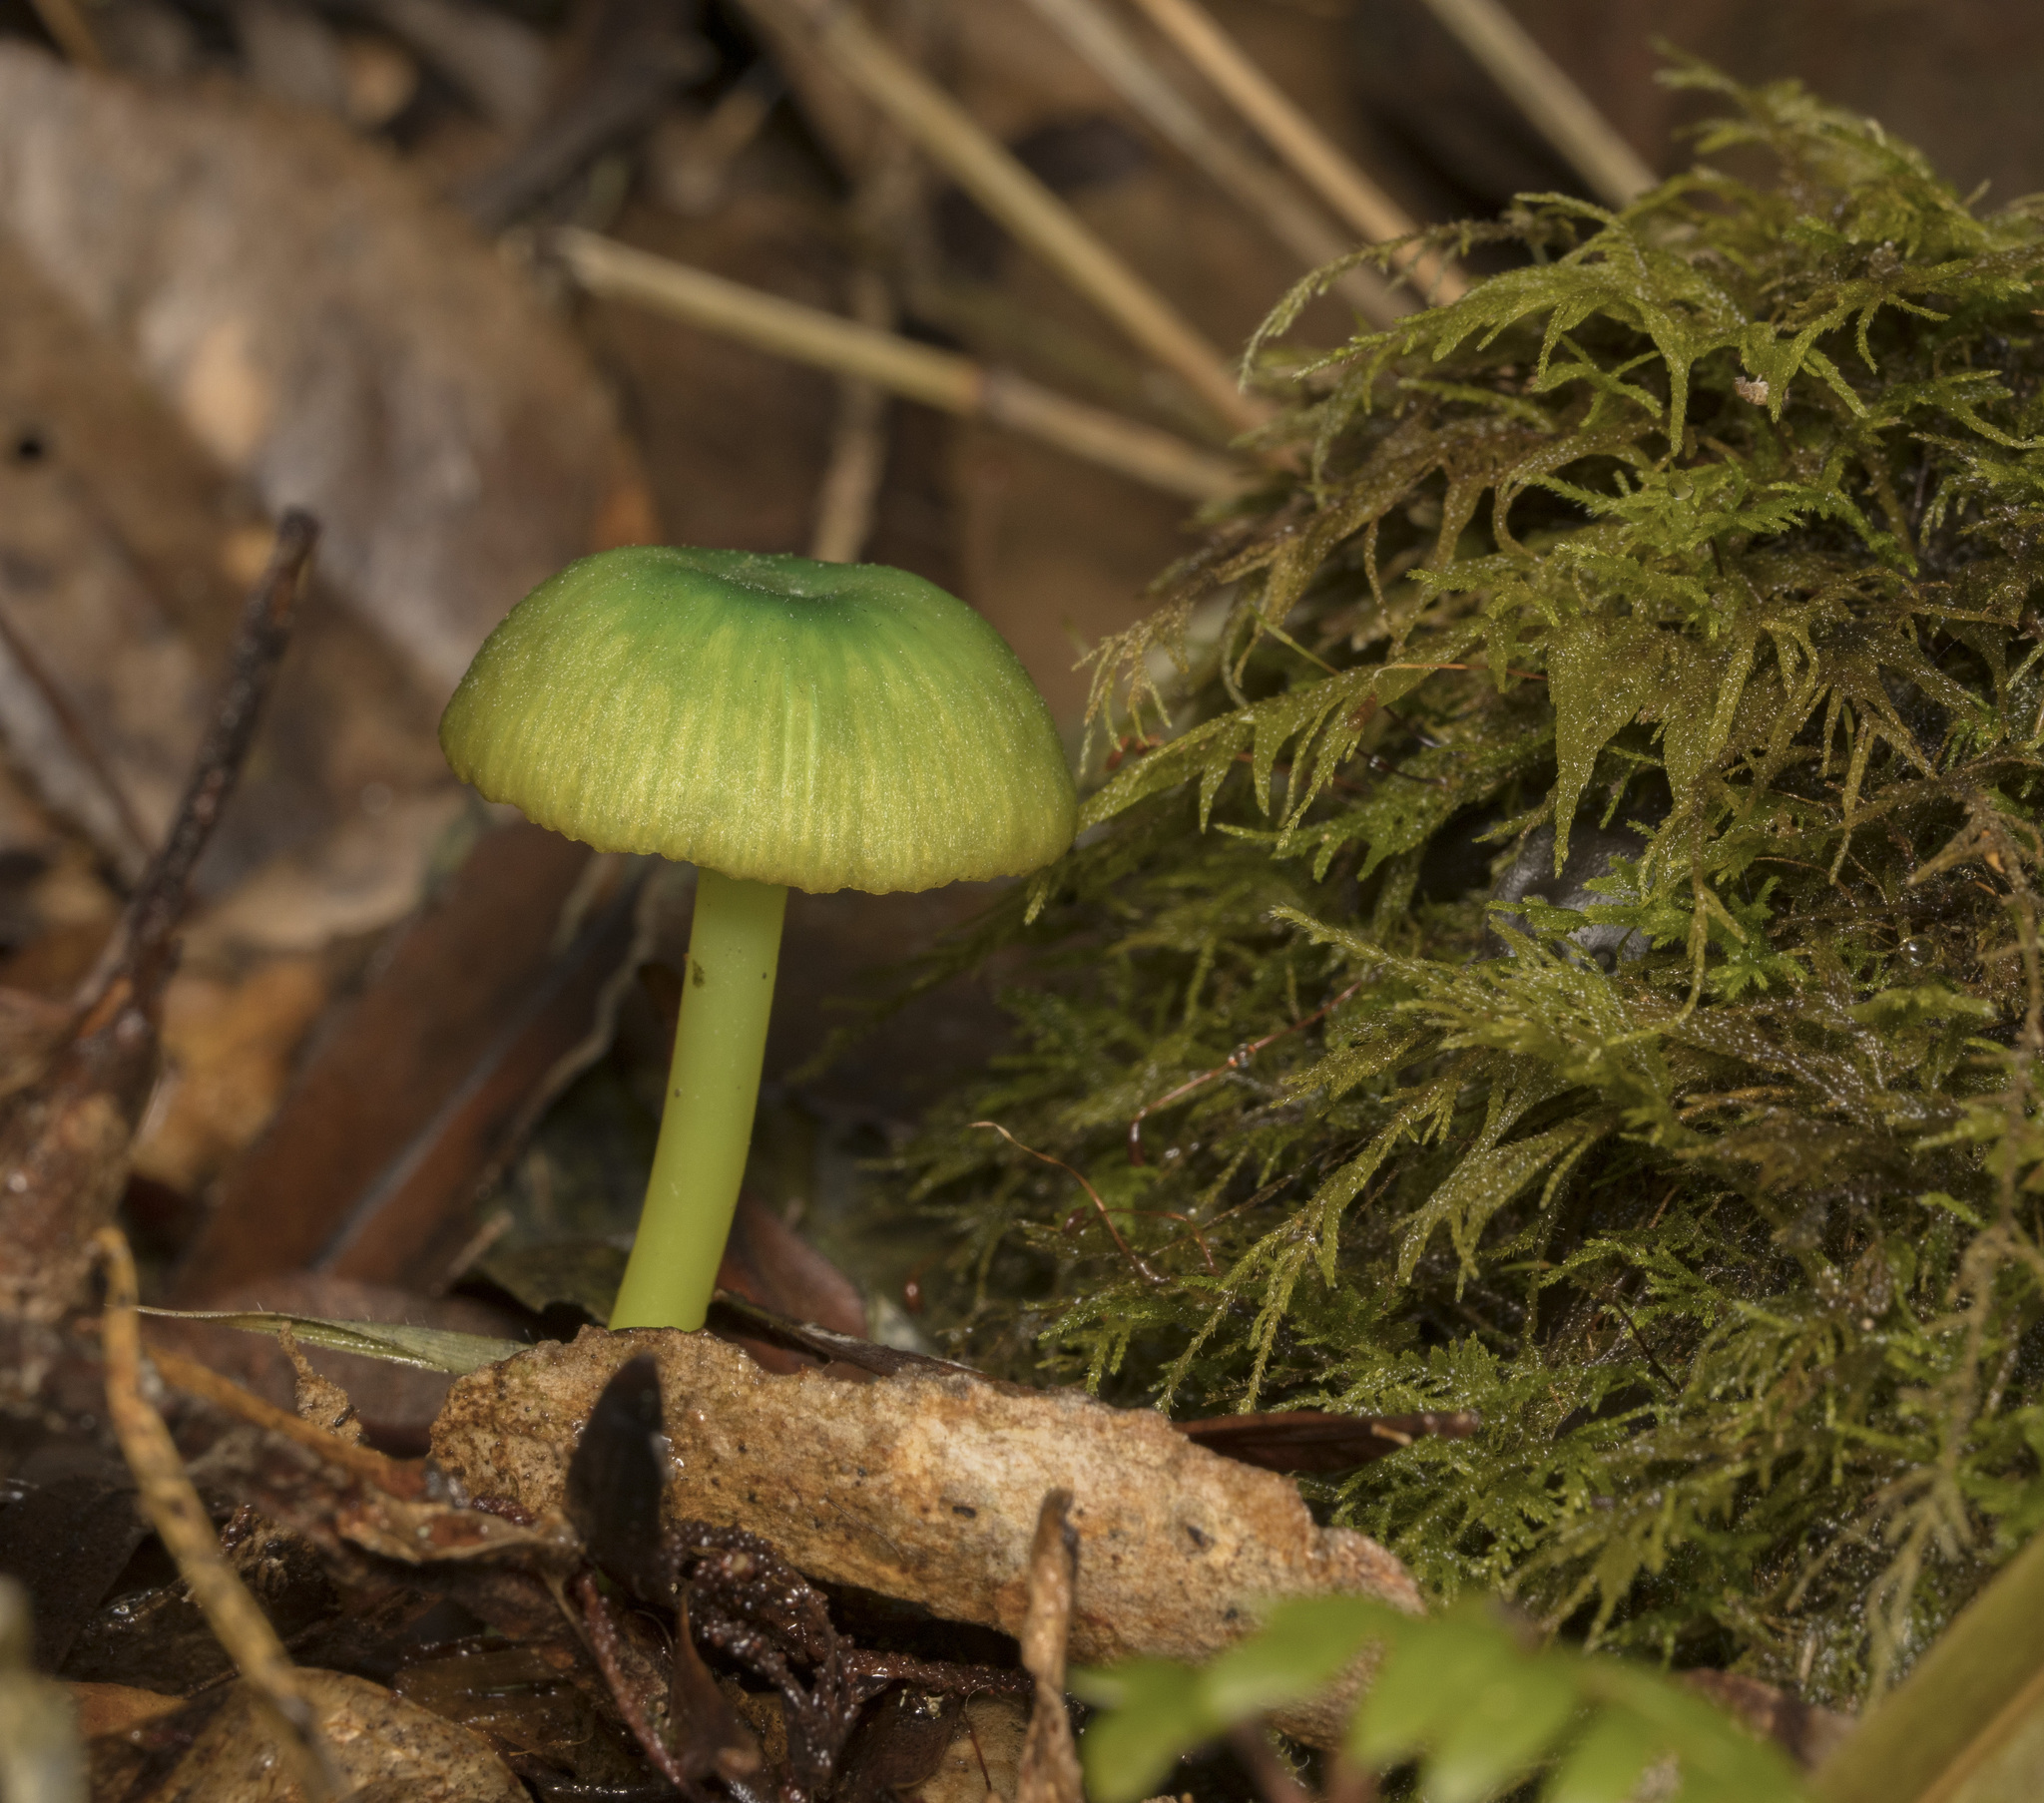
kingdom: Fungi
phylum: Basidiomycota
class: Agaricomycetes
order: Agaricales
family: Entolomataceae
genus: Entoloma
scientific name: Entoloma necopinatum
